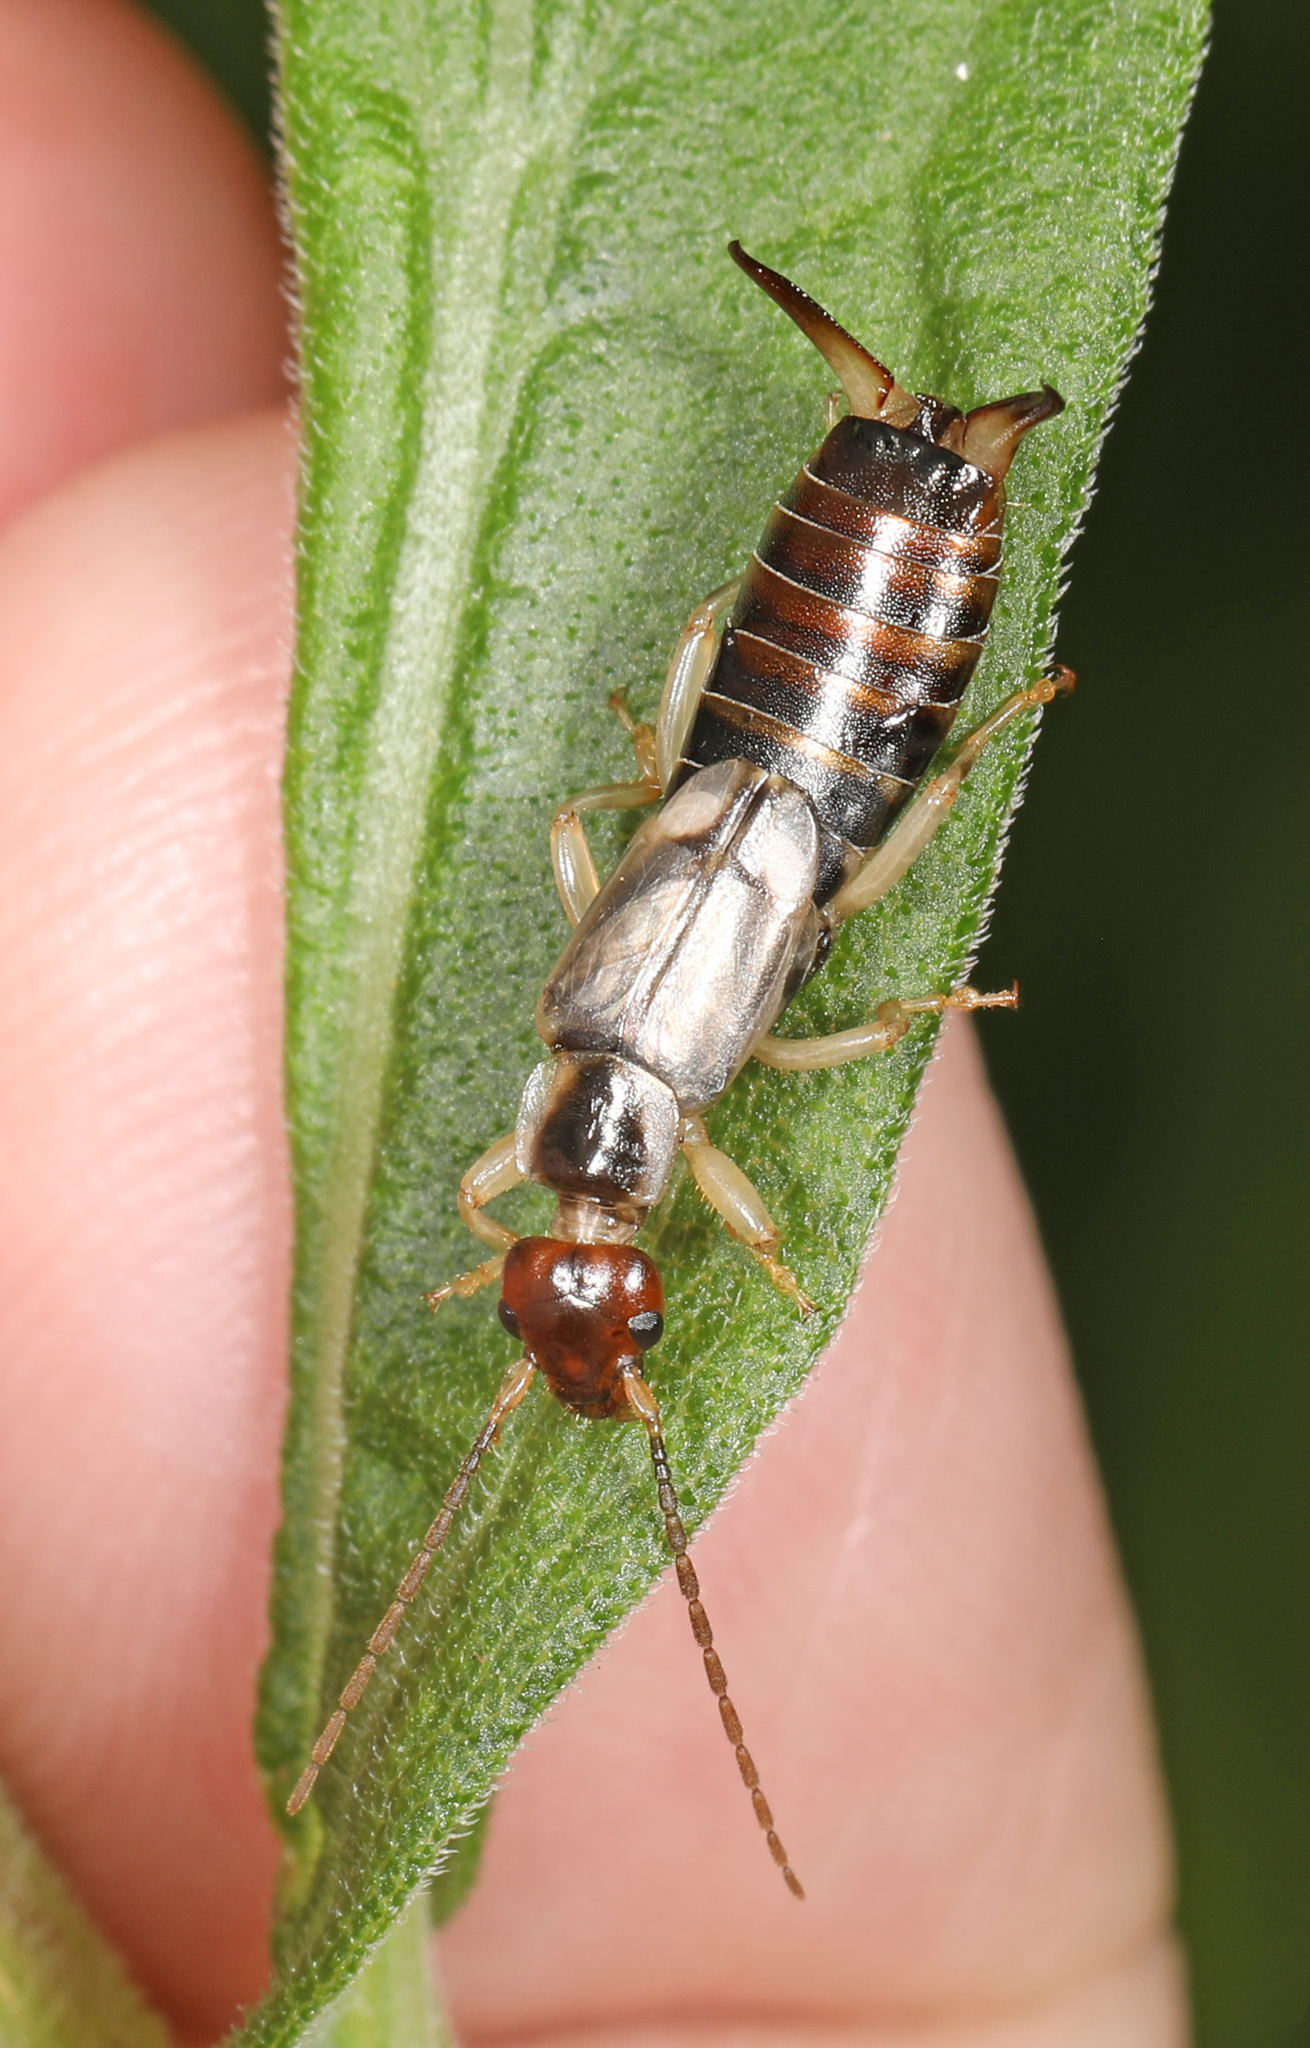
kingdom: Animalia
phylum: Arthropoda
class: Insecta
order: Dermaptera
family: Forficulidae
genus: Forficula
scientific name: Forficula
